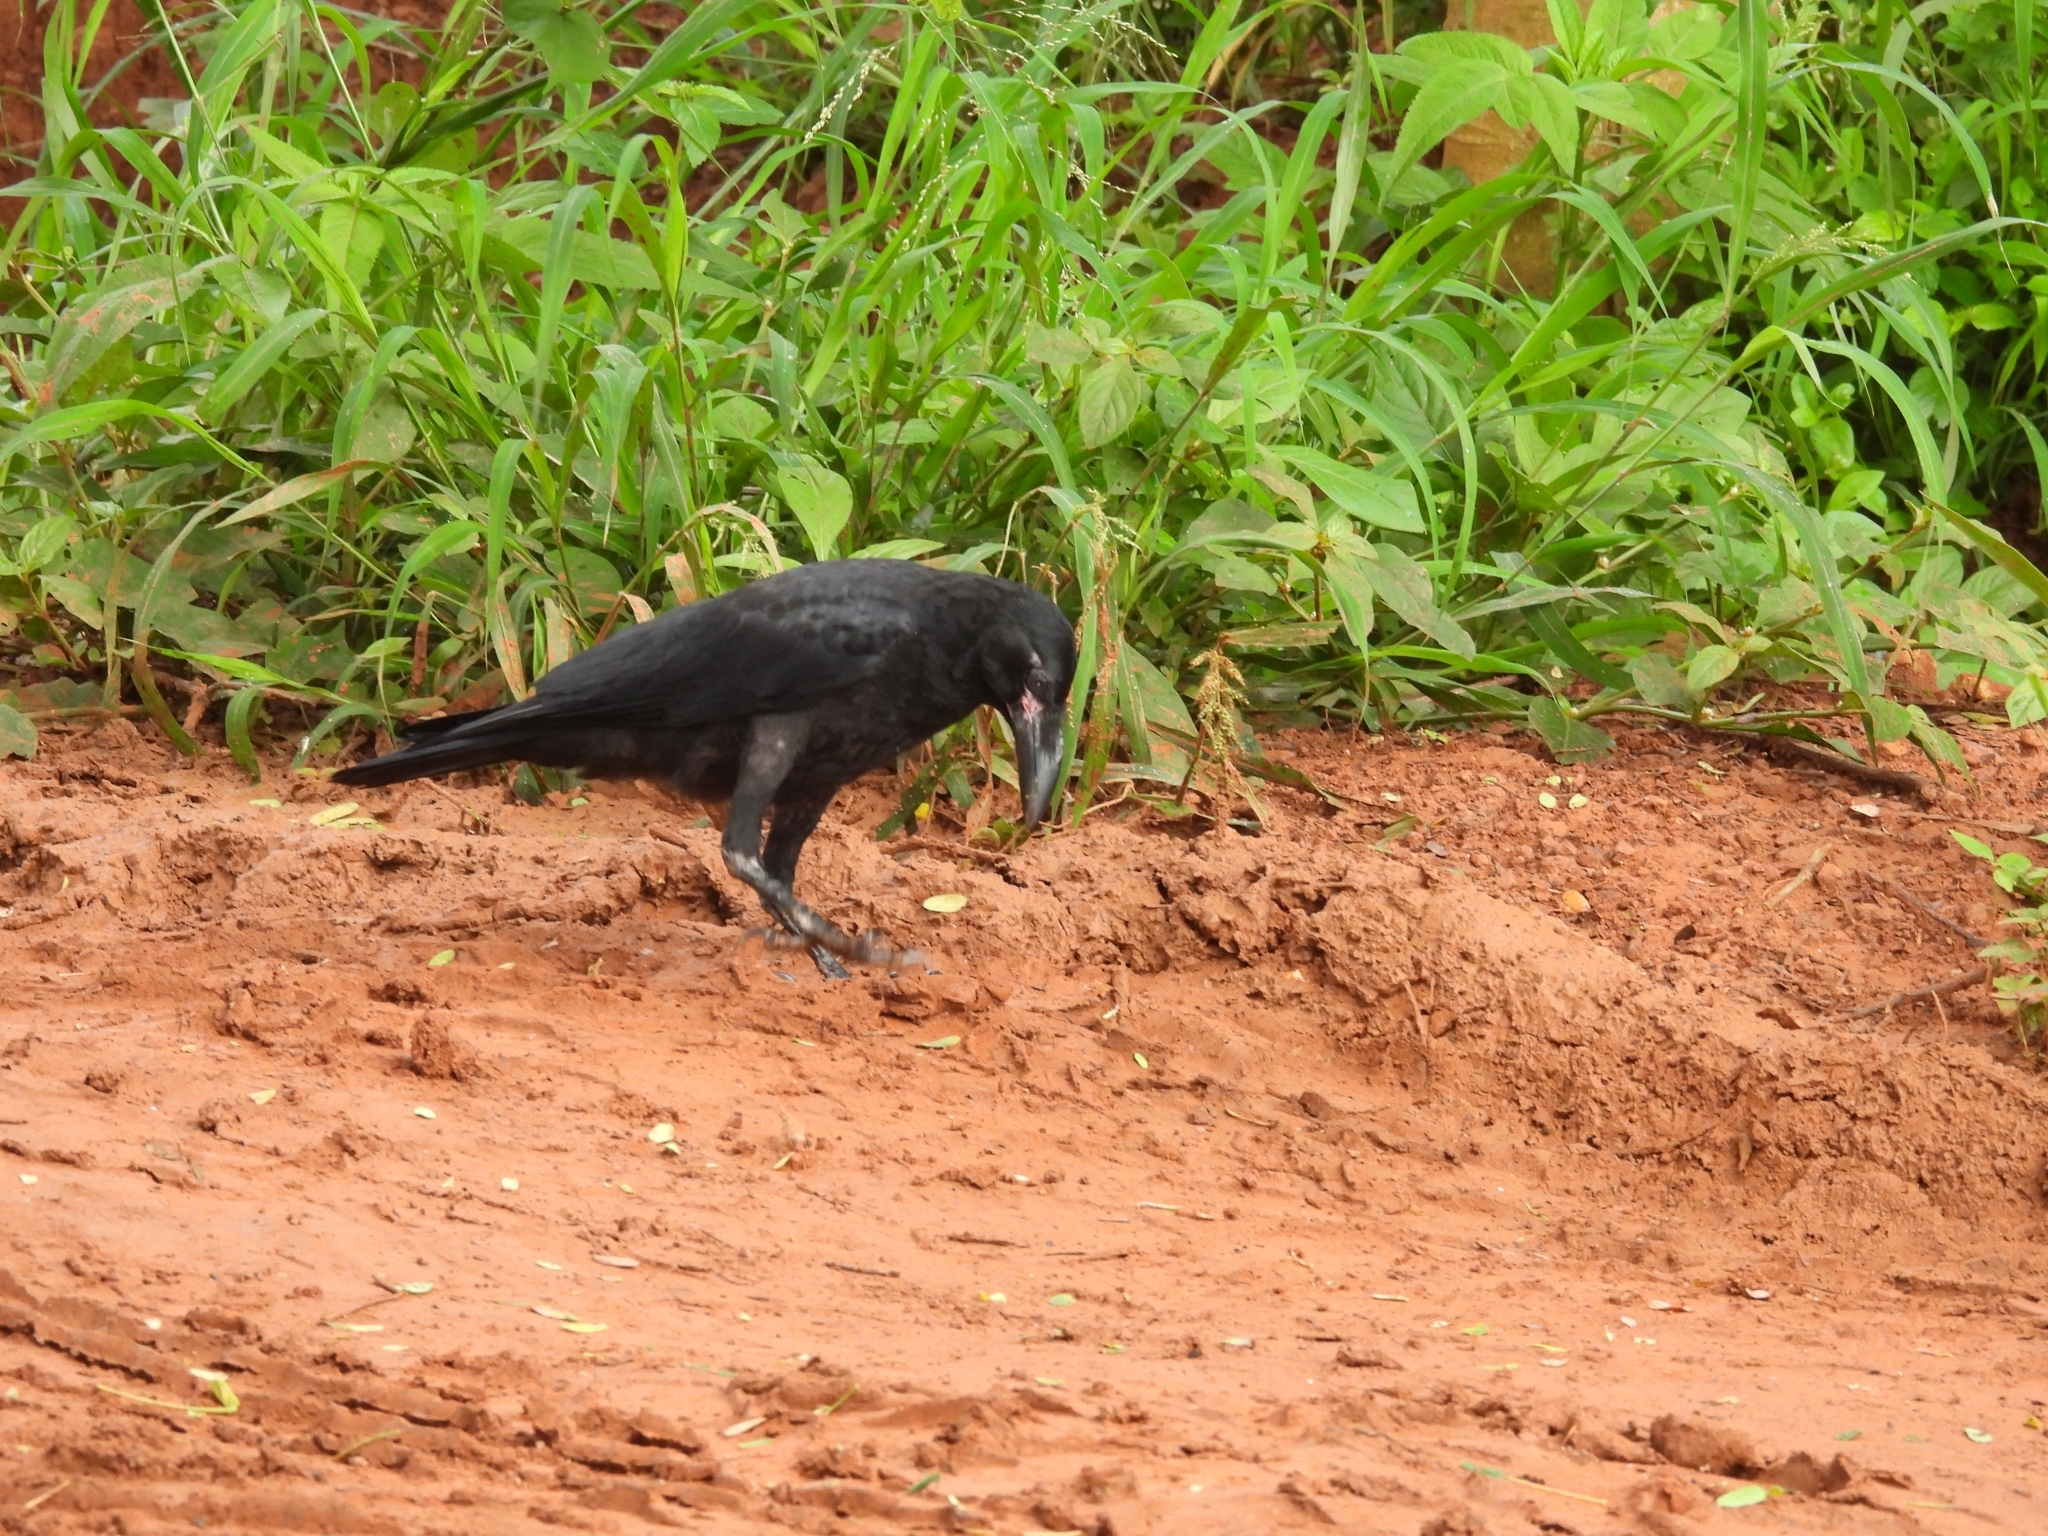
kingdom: Animalia
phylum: Chordata
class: Aves
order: Passeriformes
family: Corvidae
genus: Corvus
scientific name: Corvus macrorhynchos
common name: Large-billed crow
